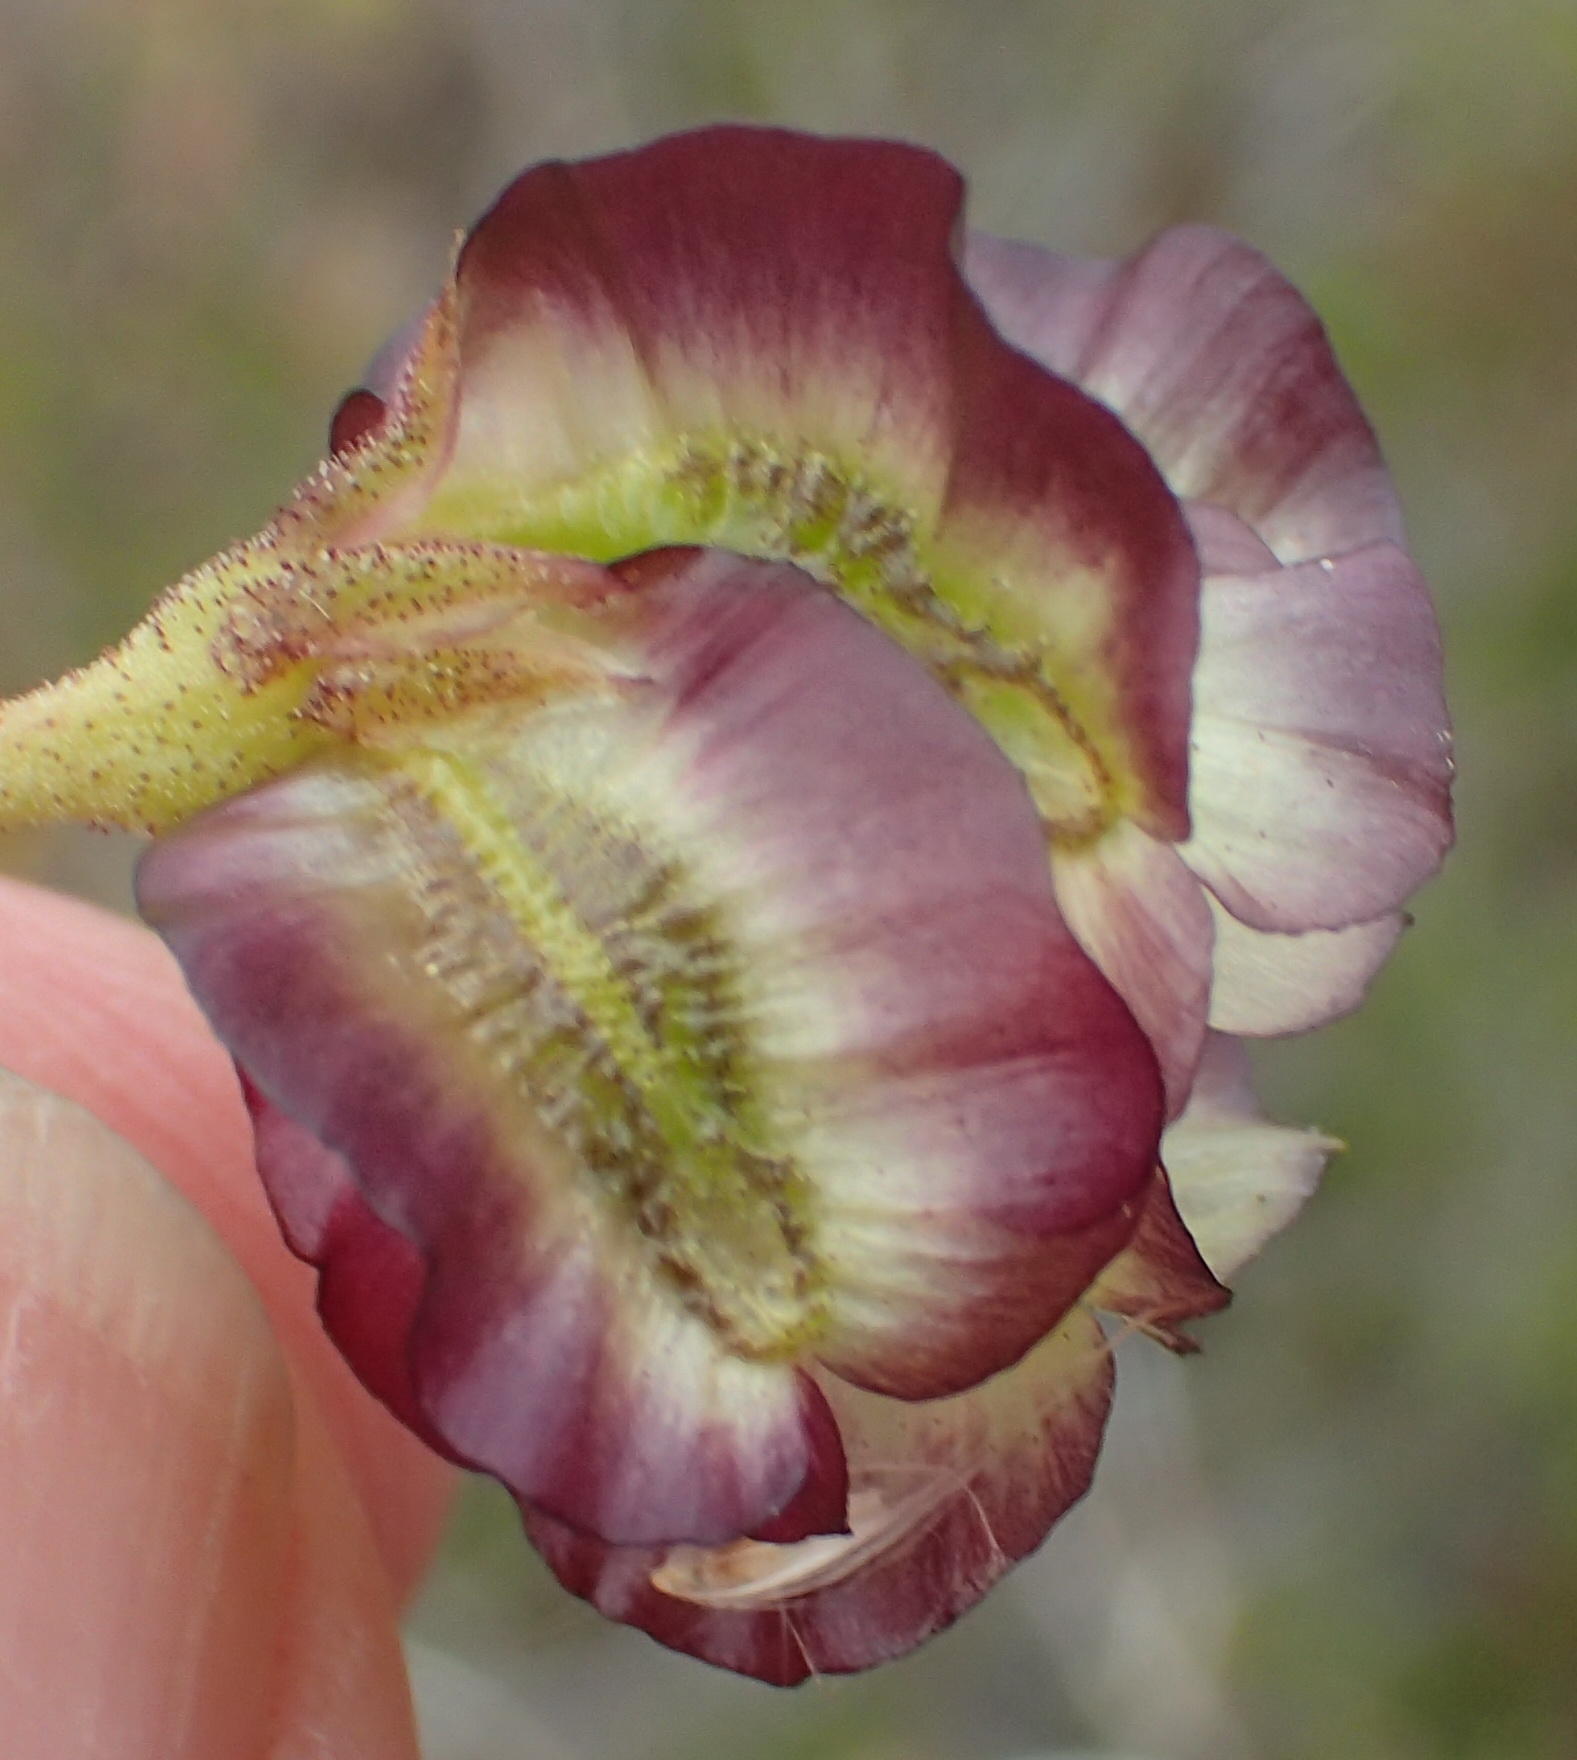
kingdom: Plantae
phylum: Tracheophyta
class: Magnoliopsida
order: Asterales
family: Asteraceae
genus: Osteospermum
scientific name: Osteospermum sinuatum
